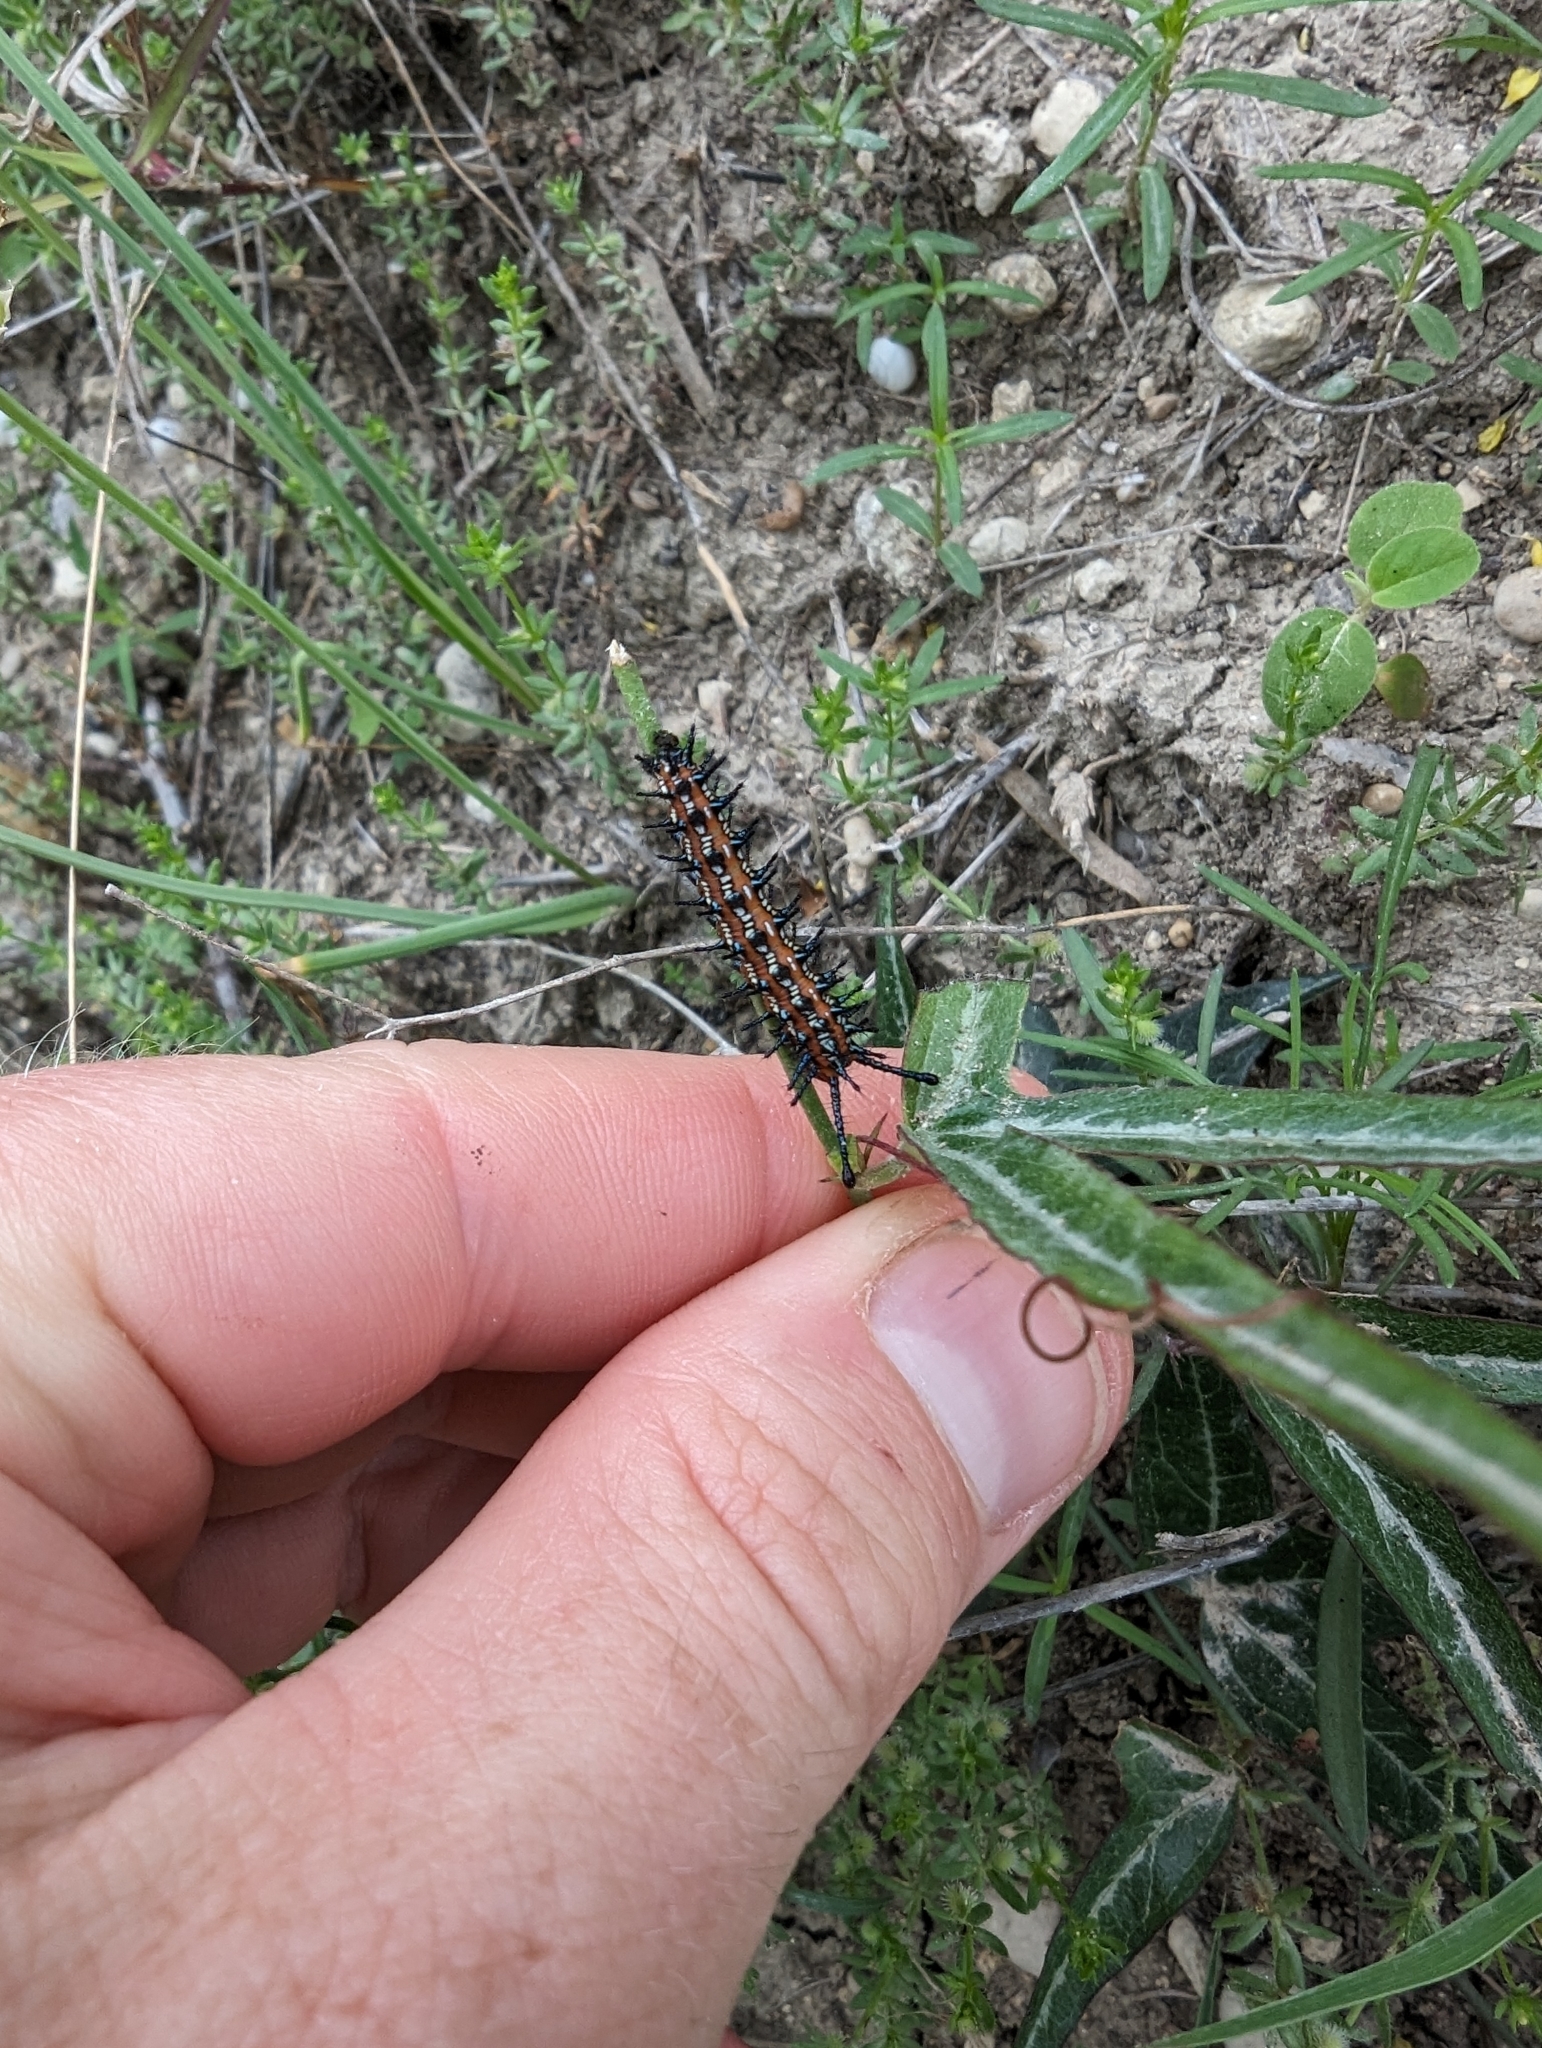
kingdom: Animalia
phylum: Arthropoda
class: Insecta
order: Lepidoptera
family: Nymphalidae
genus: Euptoieta
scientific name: Euptoieta claudia
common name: Variegated fritillary
